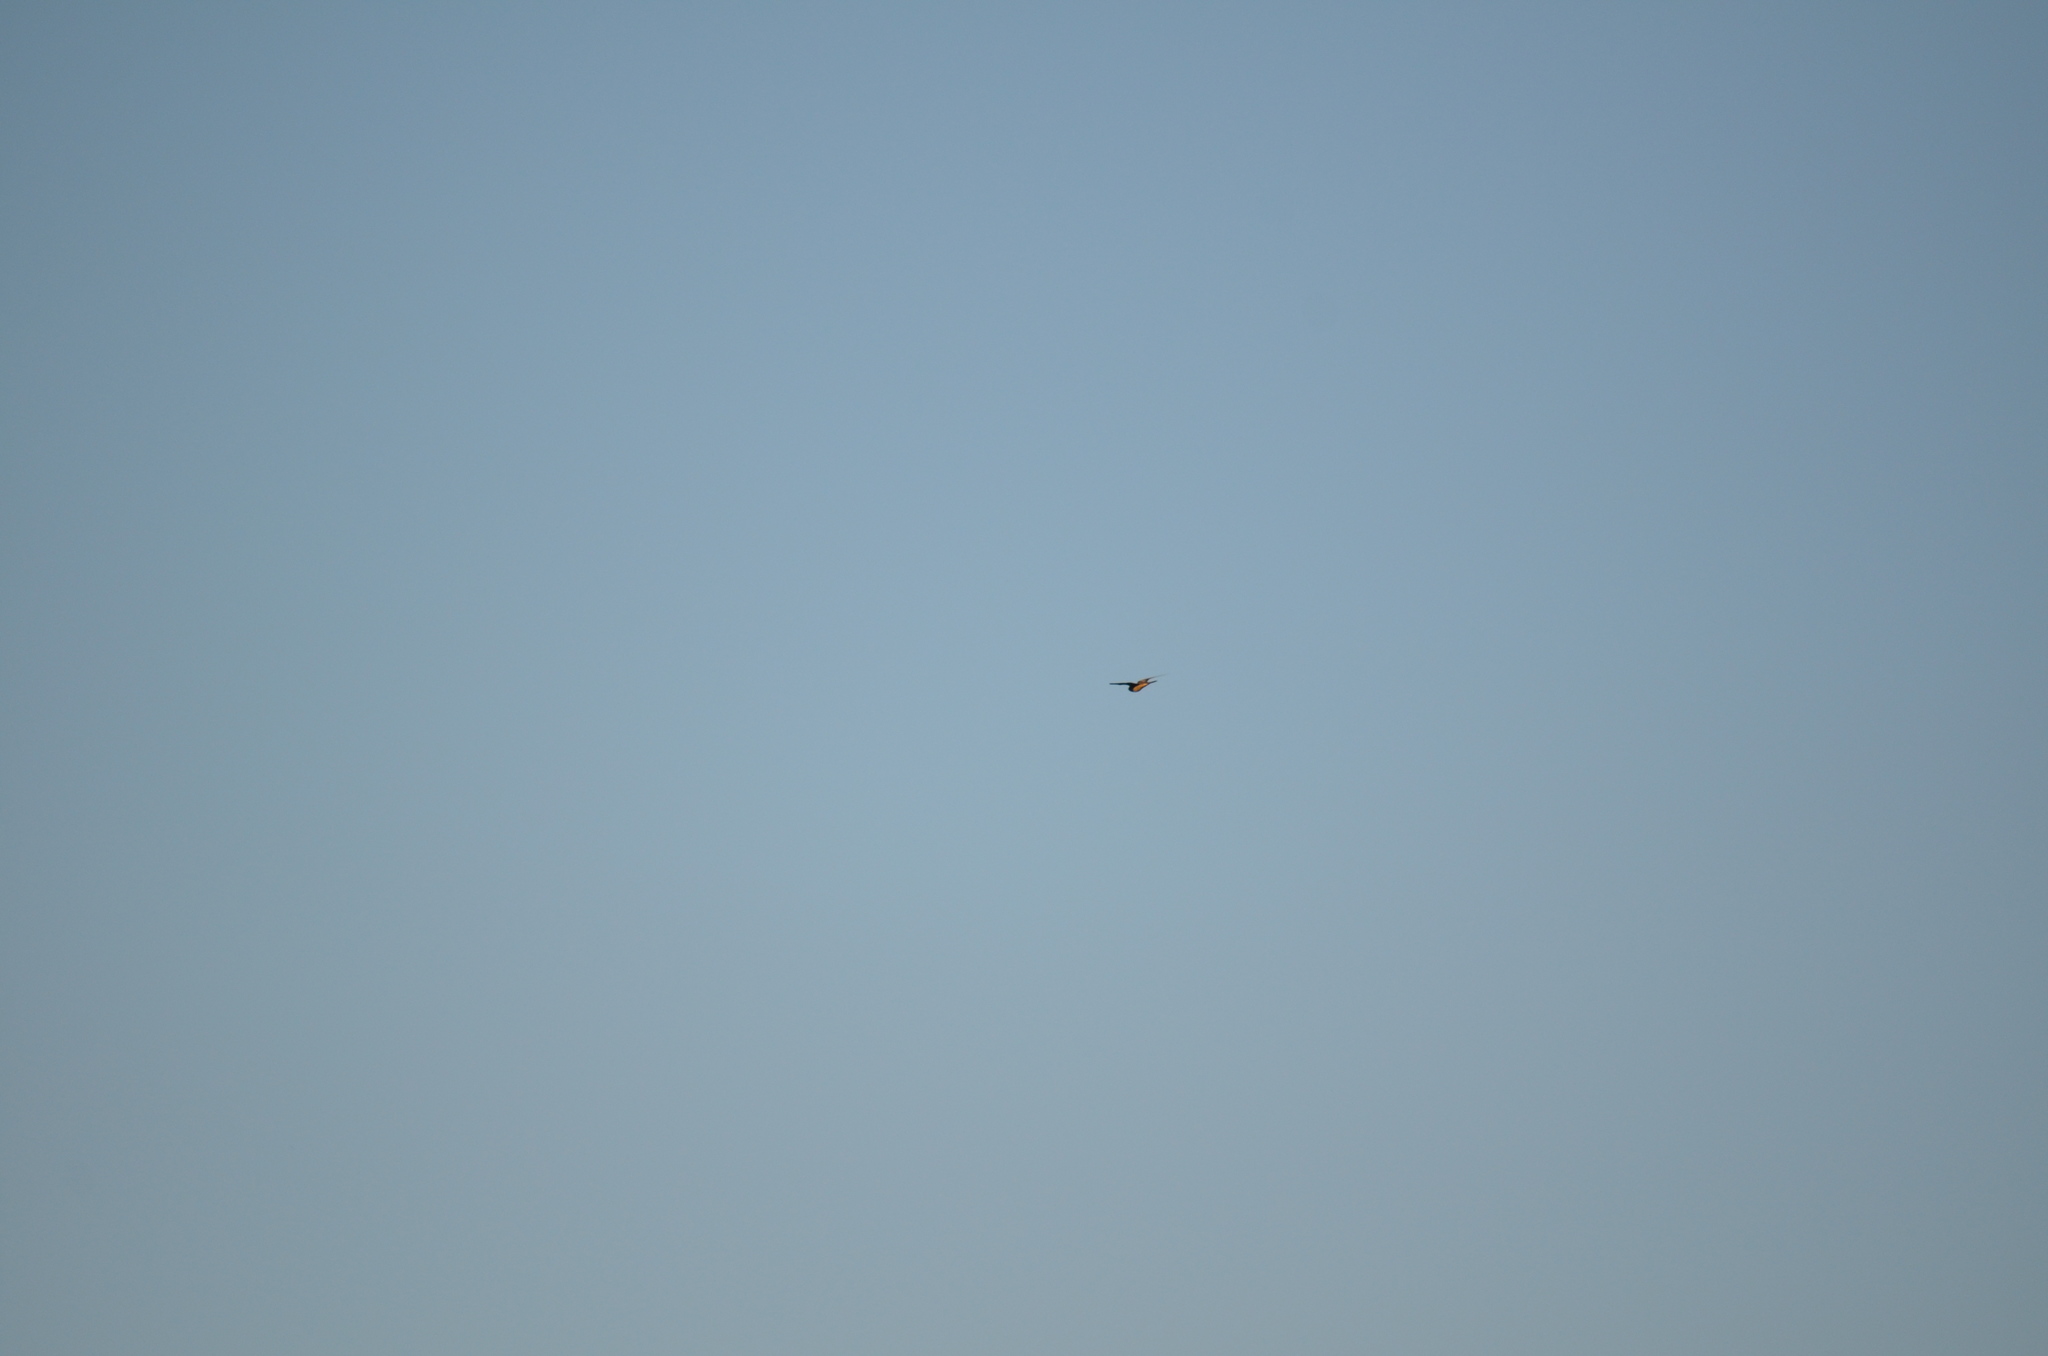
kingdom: Animalia
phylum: Chordata
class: Aves
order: Passeriformes
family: Hirundinidae
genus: Hirundo
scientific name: Hirundo rustica
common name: Barn swallow
